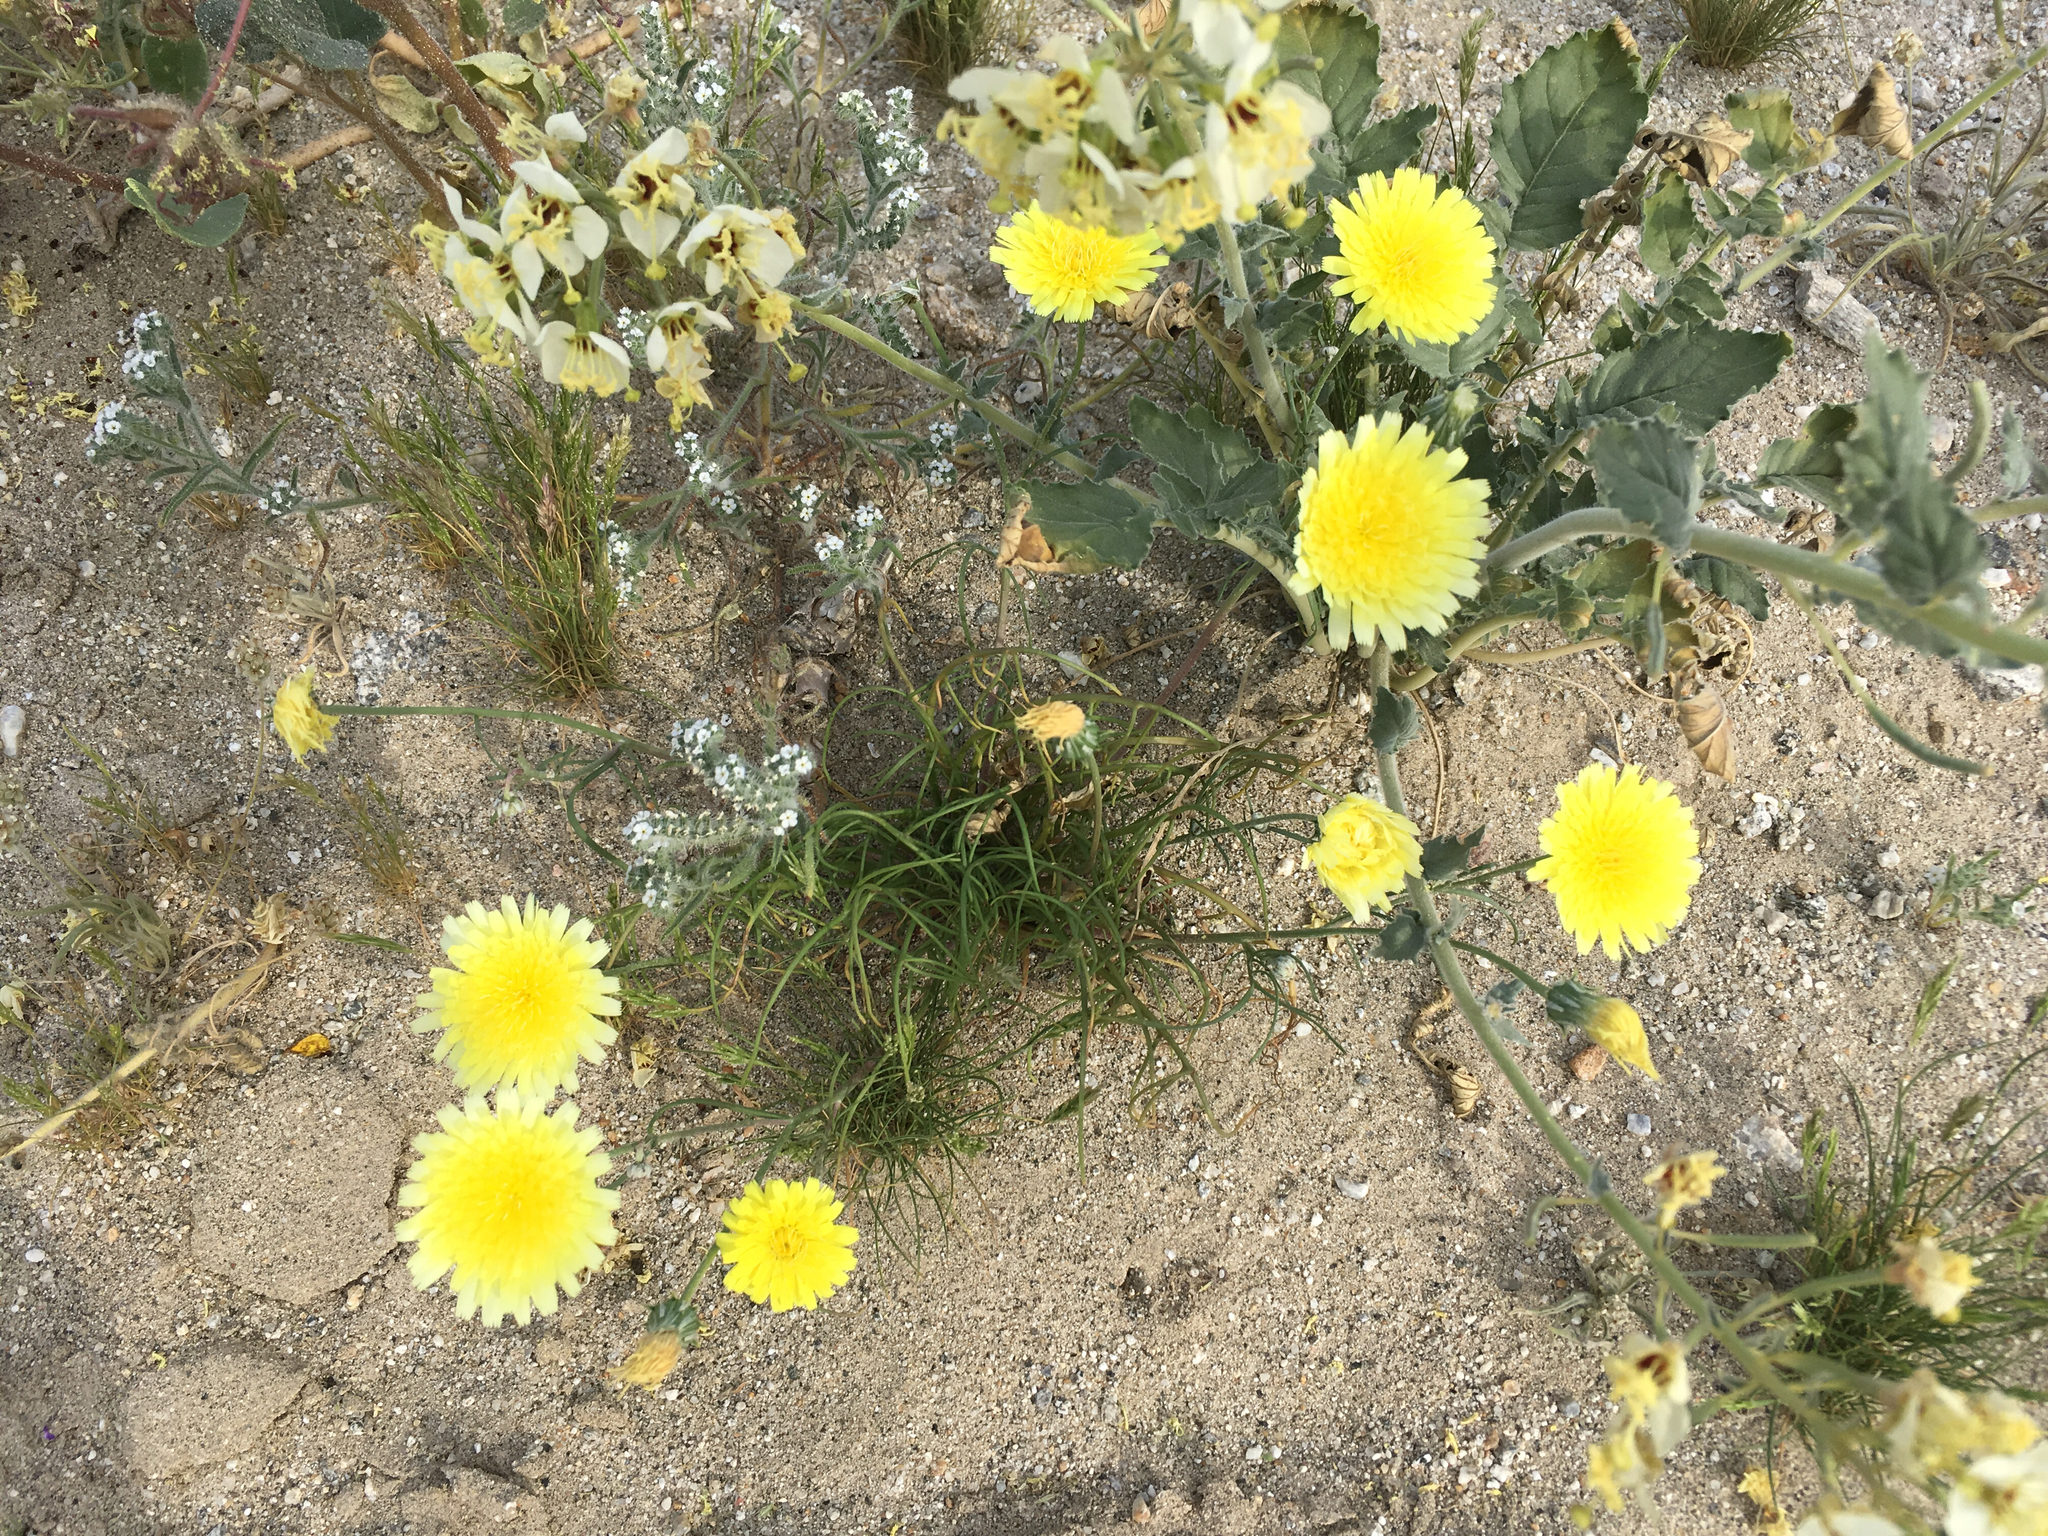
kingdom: Plantae
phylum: Tracheophyta
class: Magnoliopsida
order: Asterales
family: Asteraceae
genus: Malacothrix
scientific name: Malacothrix glabrata
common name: Smooth desert-dandelion
